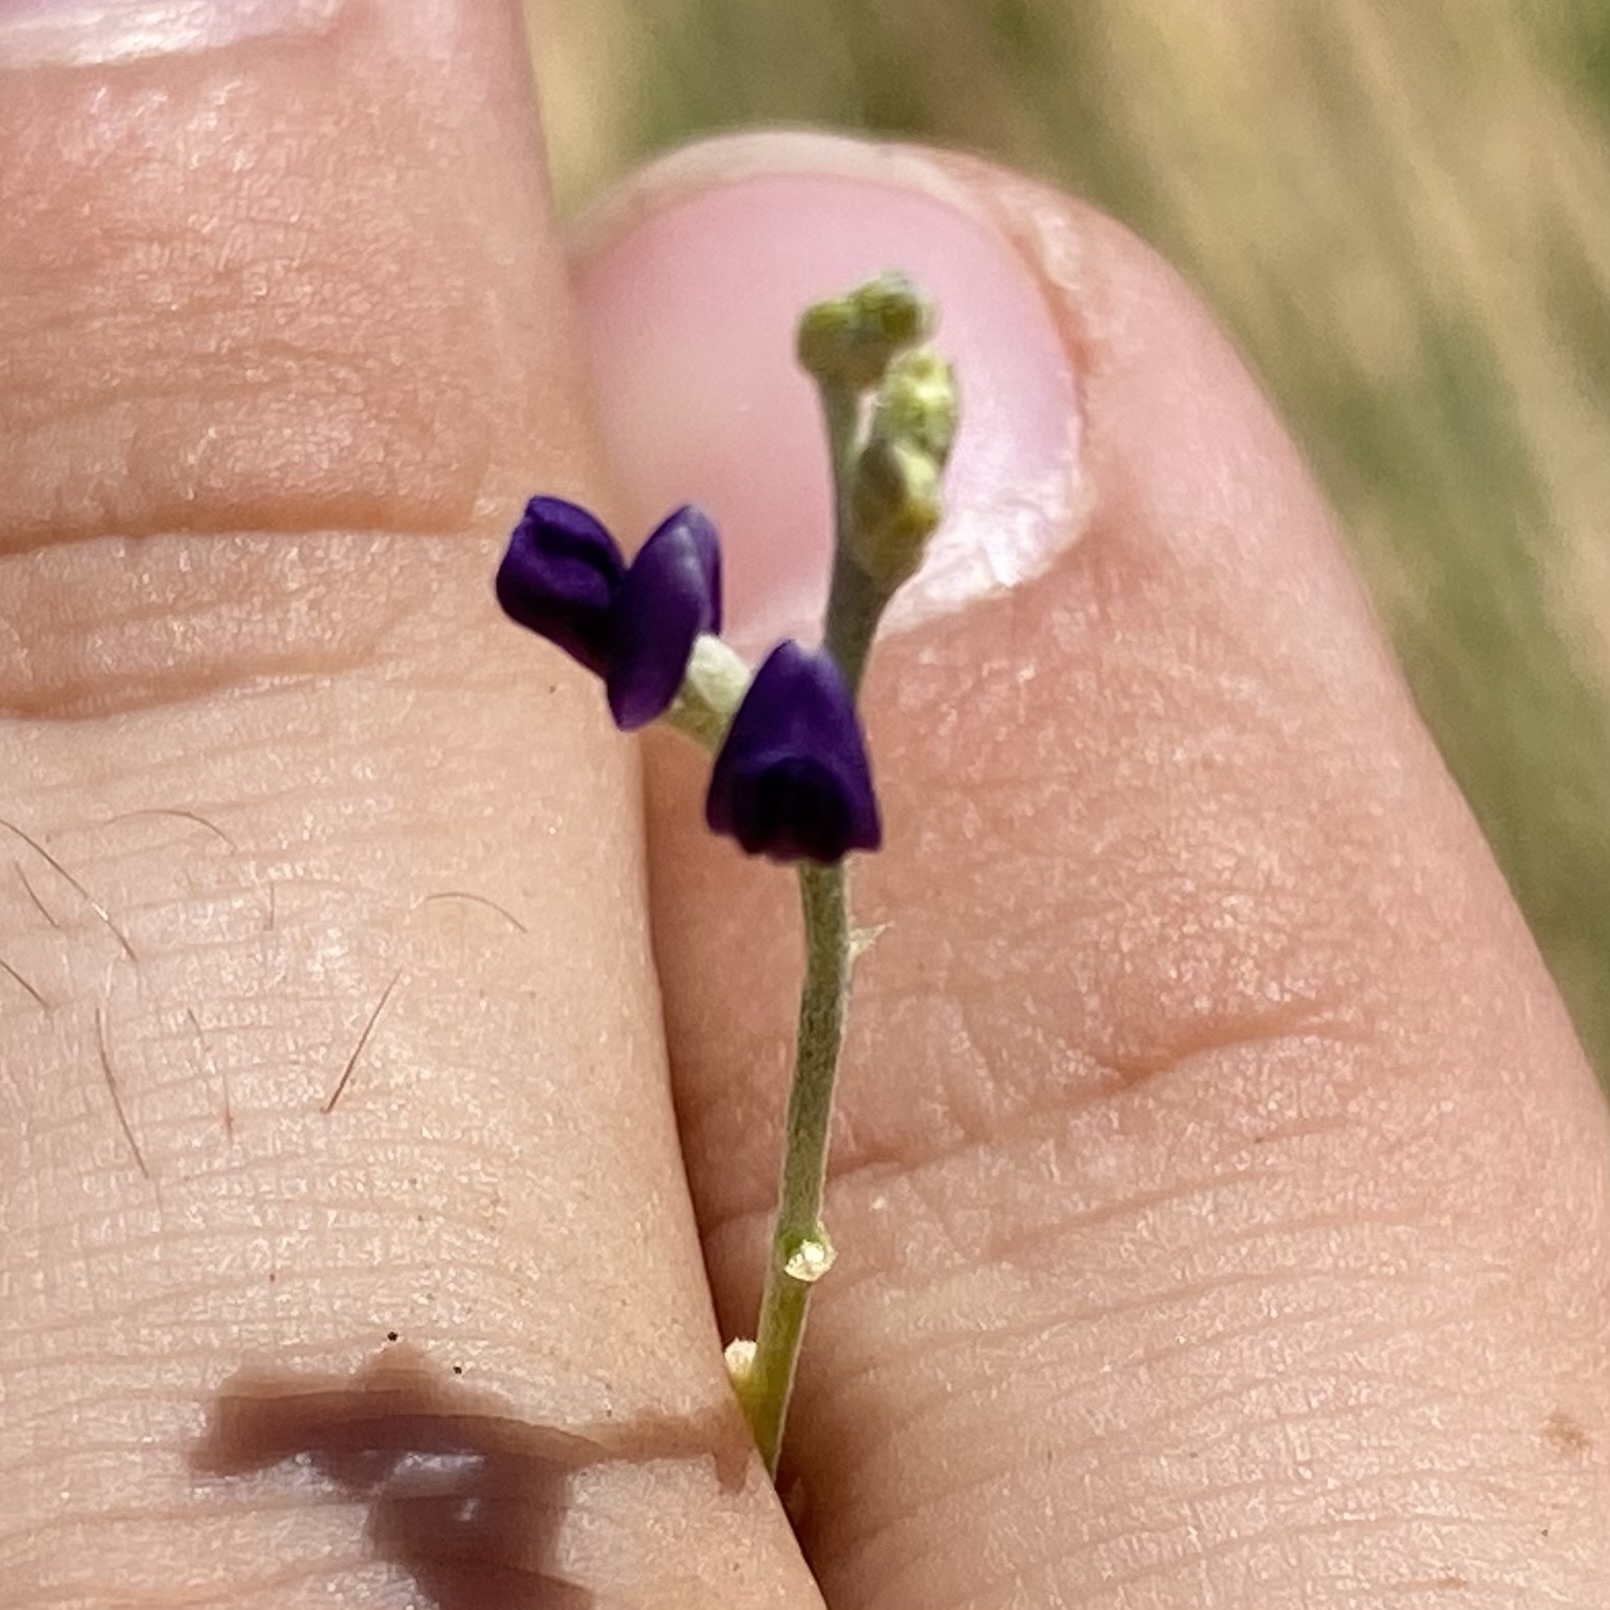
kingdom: Plantae
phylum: Tracheophyta
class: Magnoliopsida
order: Fabales
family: Fabaceae
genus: Pediomelum
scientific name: Pediomelum
